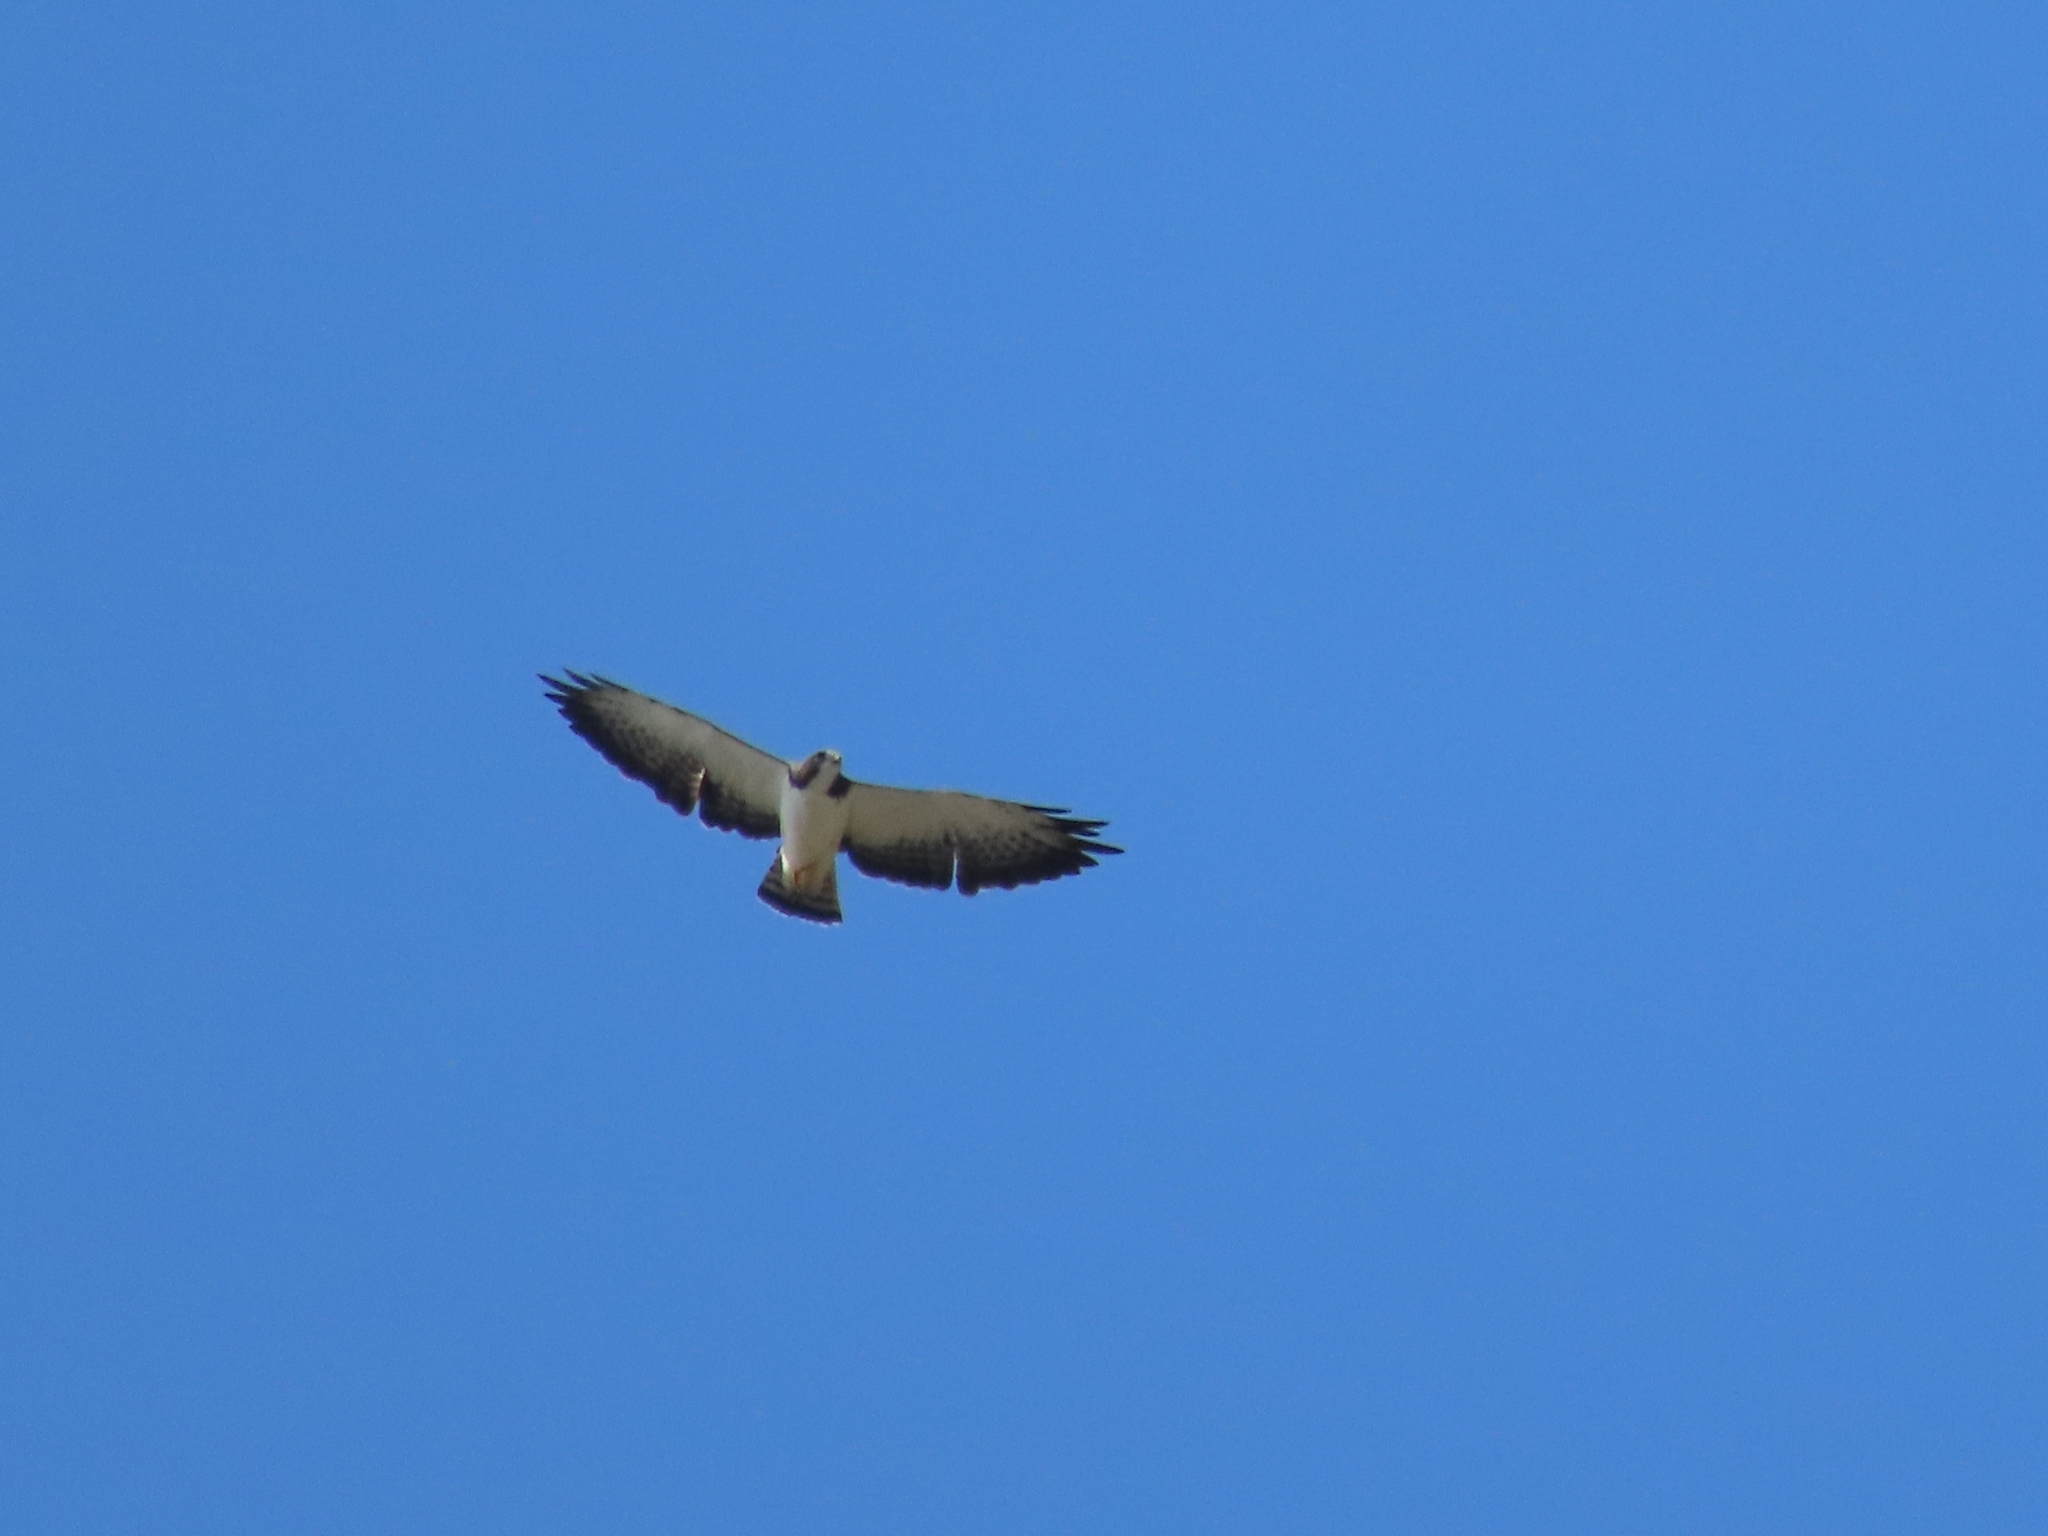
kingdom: Animalia
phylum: Chordata
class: Aves
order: Accipitriformes
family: Accipitridae
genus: Buteo
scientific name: Buteo brachyurus
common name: Short-tailed hawk
